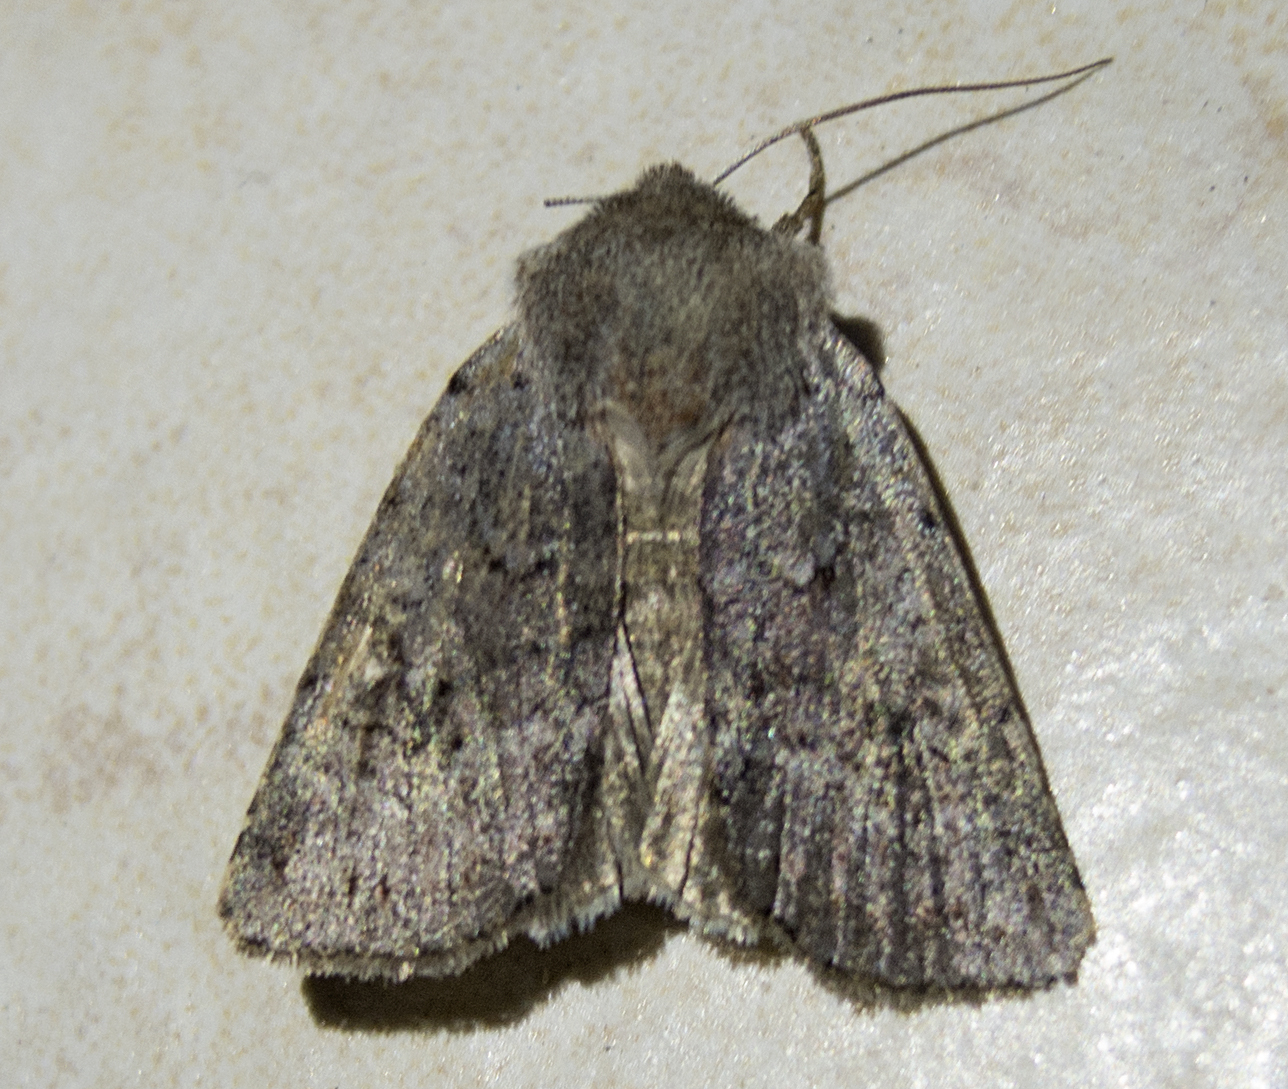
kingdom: Animalia
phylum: Arthropoda
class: Insecta
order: Lepidoptera
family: Noctuidae
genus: Cerastis
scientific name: Cerastis rubricosa
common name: Red chestnut
